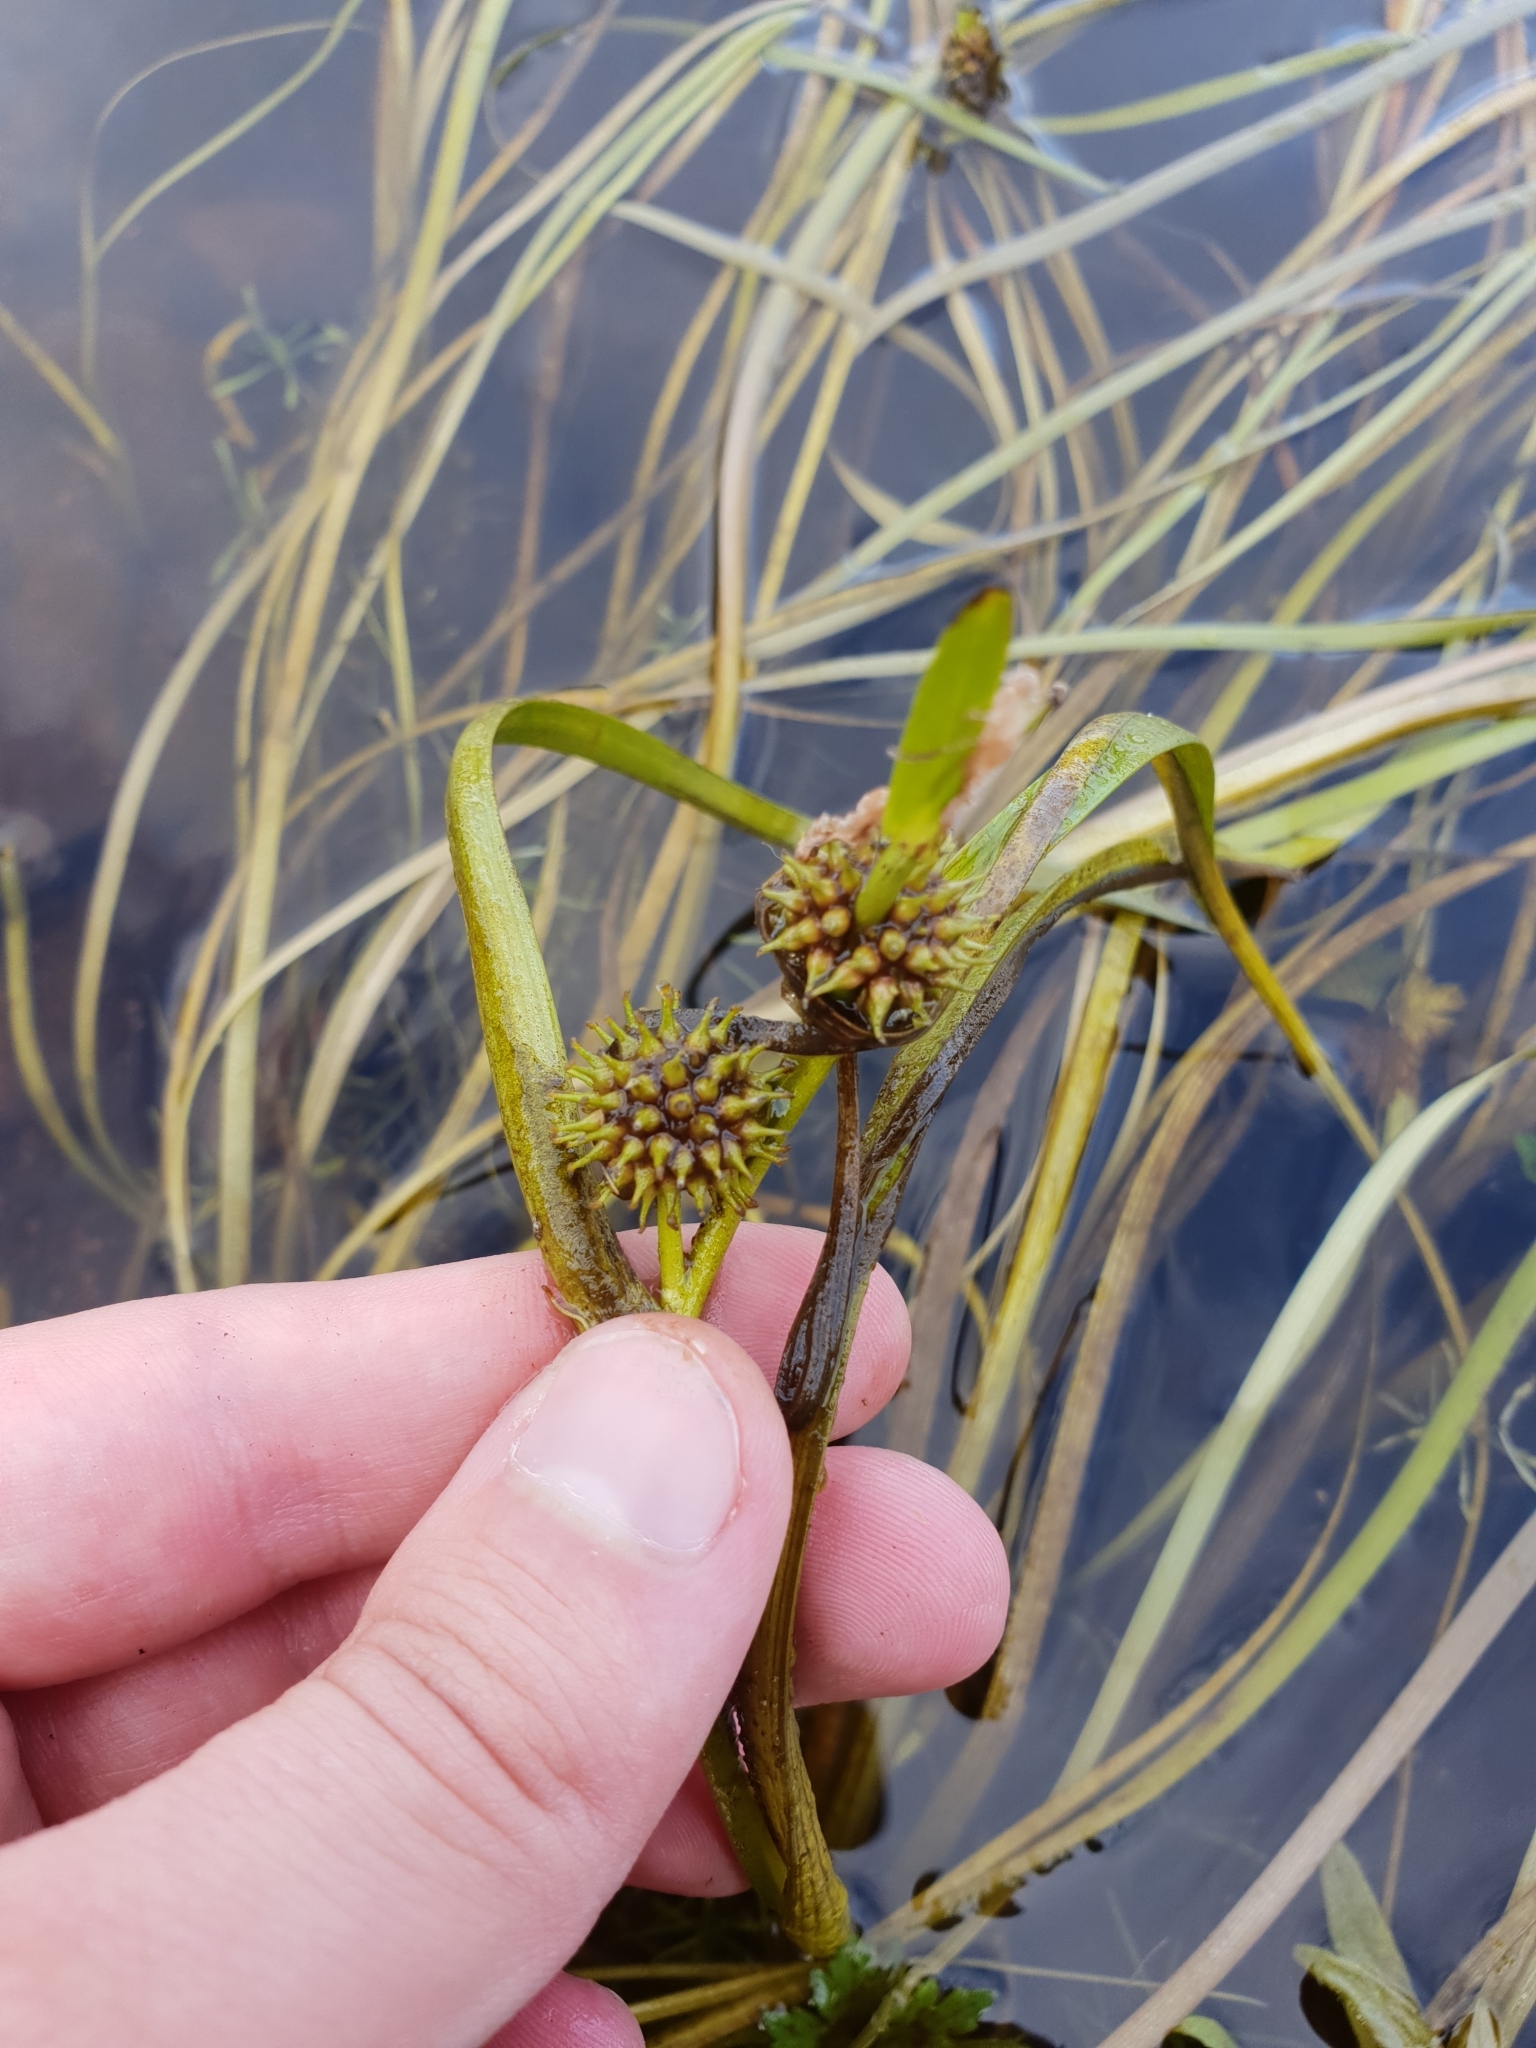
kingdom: Plantae
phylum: Tracheophyta
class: Liliopsida
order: Poales
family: Typhaceae
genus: Sparganium
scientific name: Sparganium angustifolium
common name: Floating bur-reed
